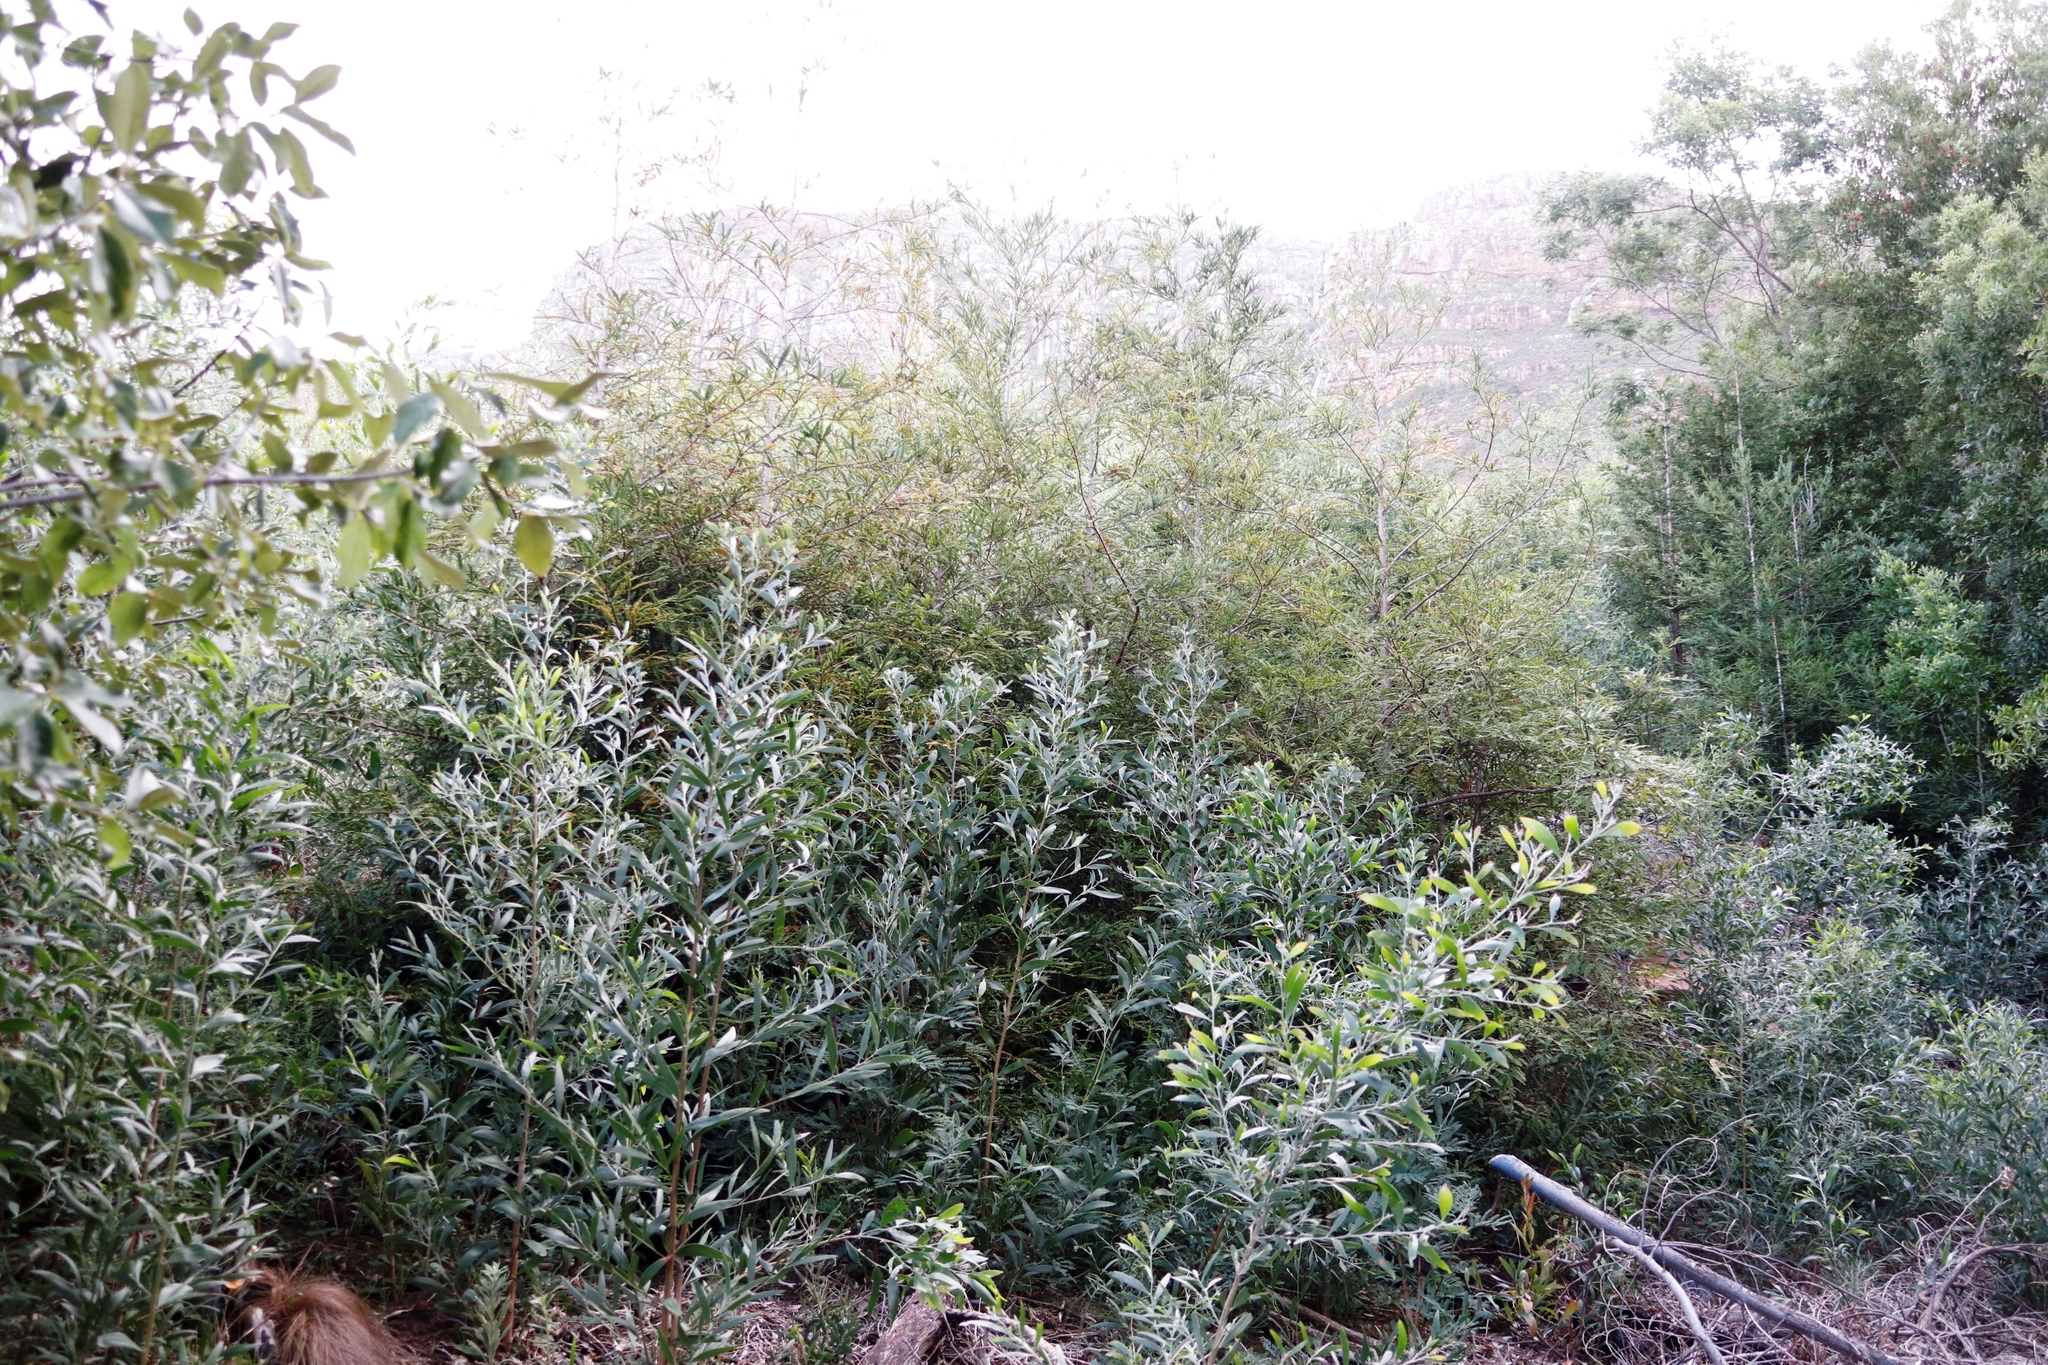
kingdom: Plantae
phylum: Tracheophyta
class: Pinopsida
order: Pinales
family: Cupressaceae
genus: Sequoia
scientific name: Sequoia sempervirens
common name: Coast redwood
